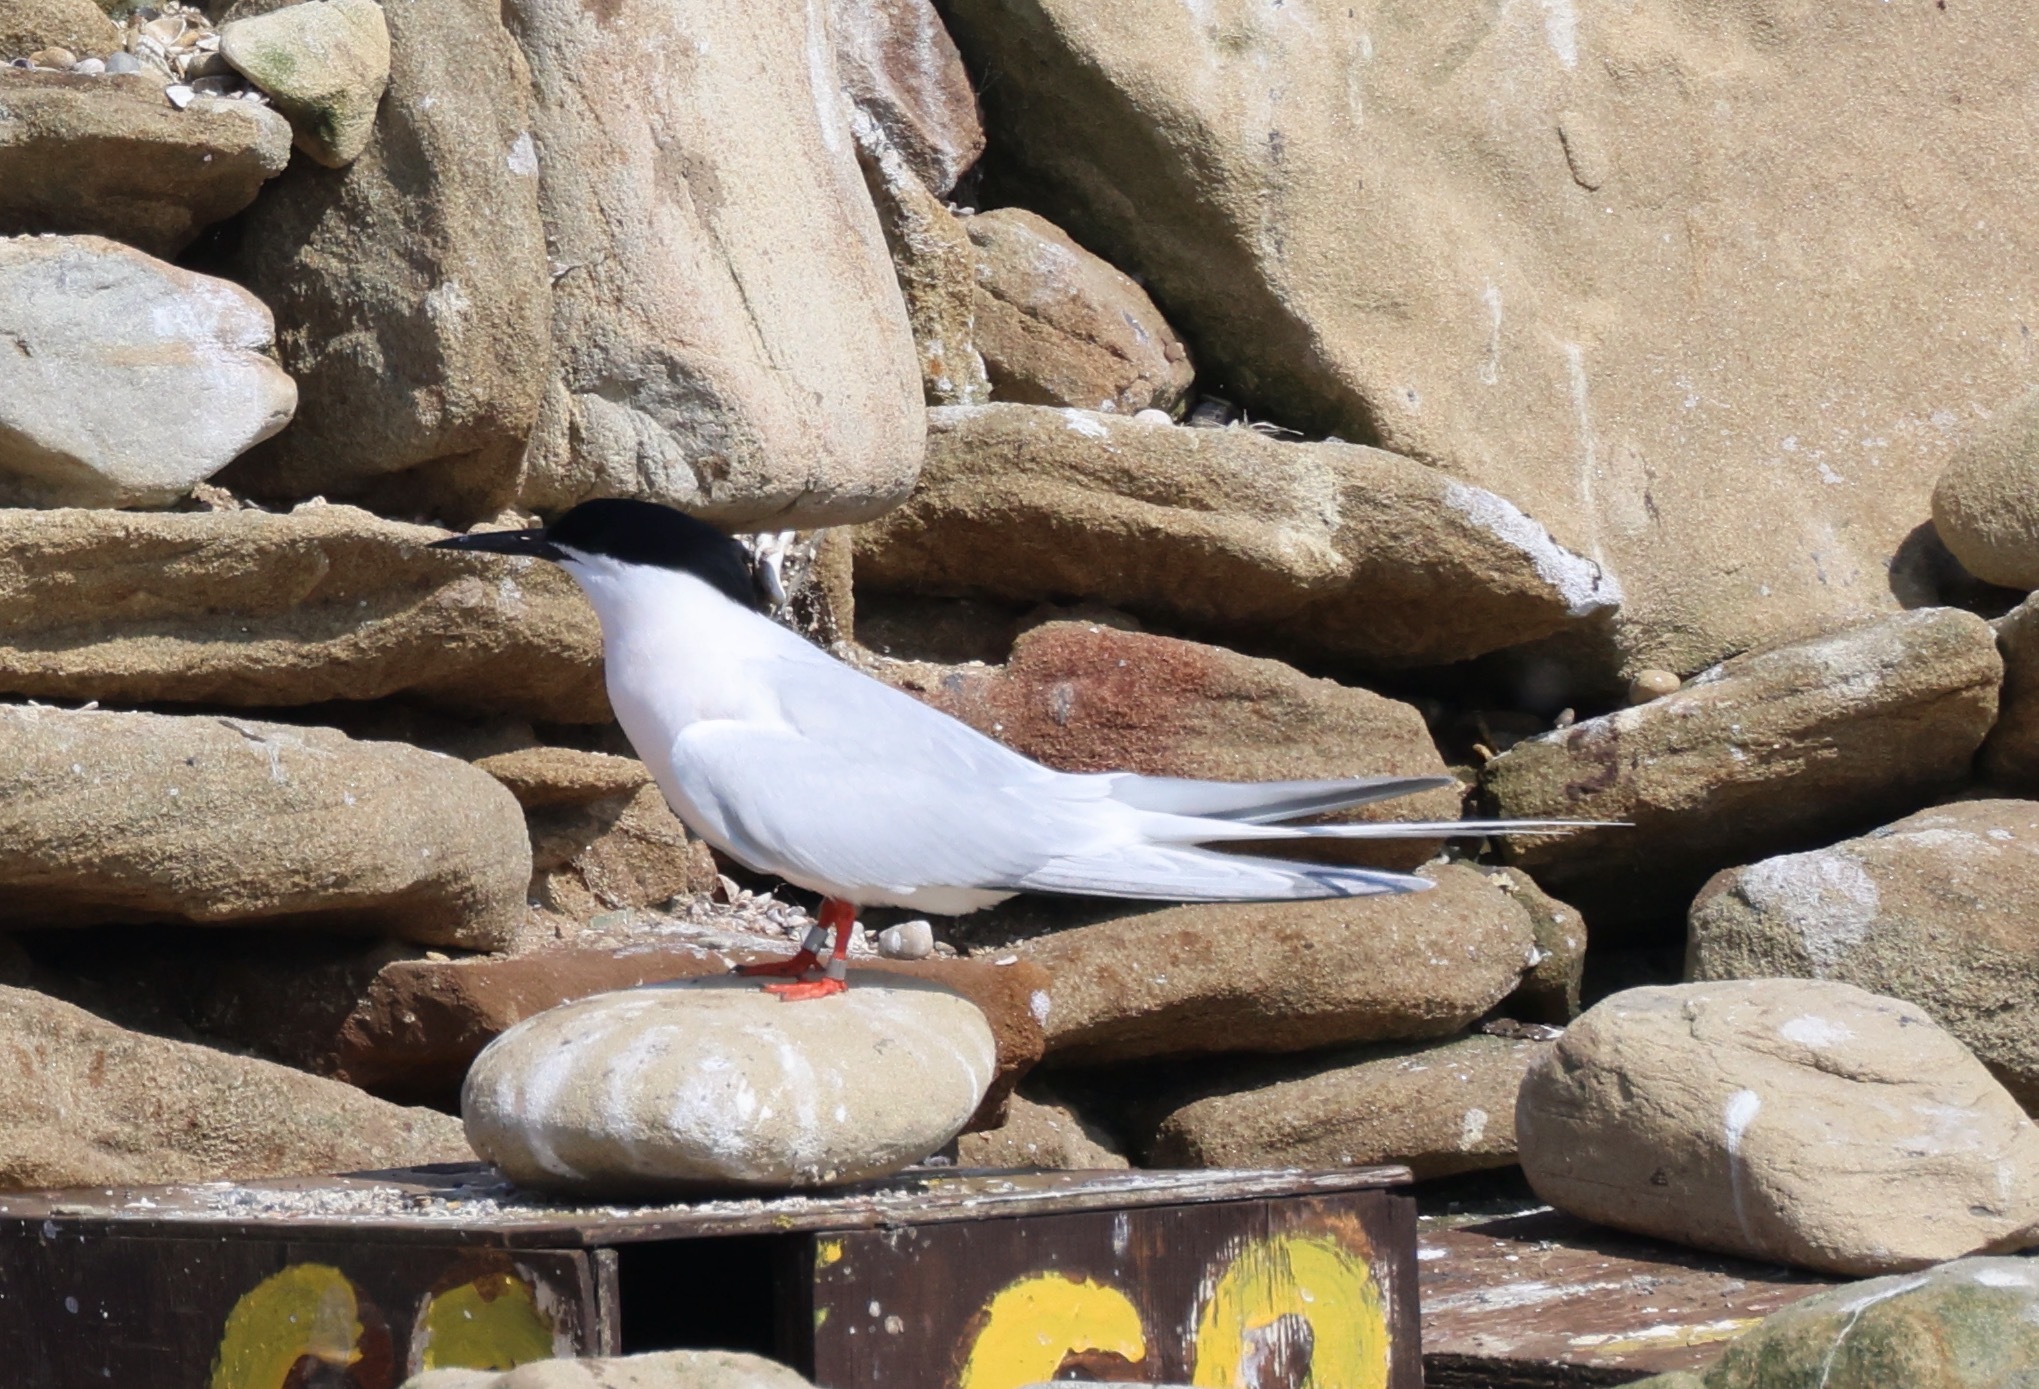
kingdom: Animalia
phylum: Chordata
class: Aves
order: Charadriiformes
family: Laridae
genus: Sterna
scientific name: Sterna dougallii
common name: Roseate tern
